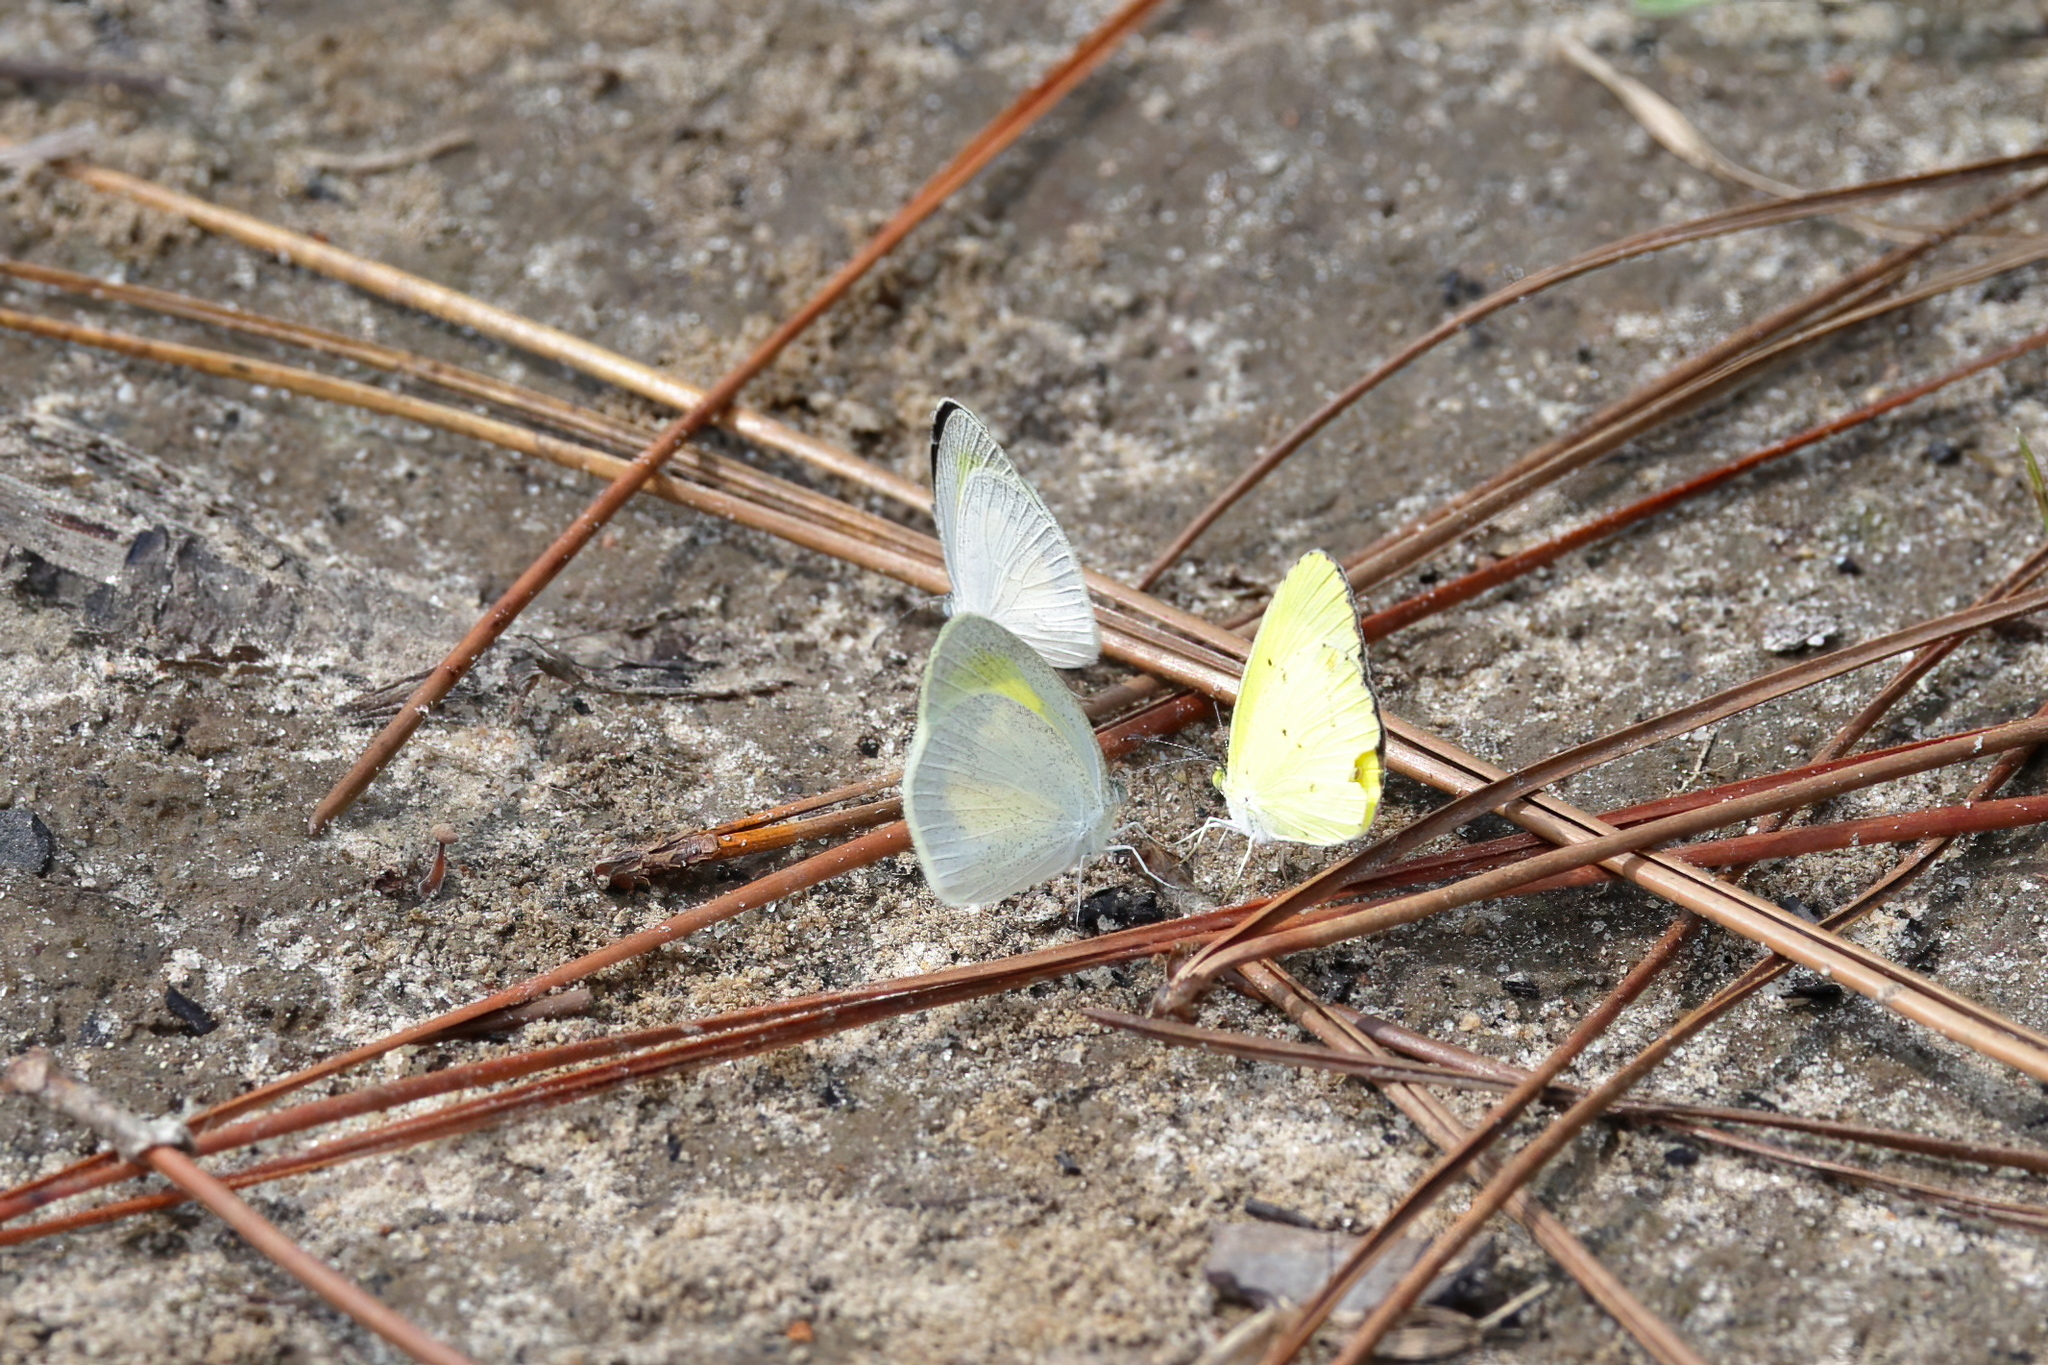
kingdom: Animalia
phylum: Arthropoda
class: Insecta
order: Lepidoptera
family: Pieridae
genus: Eurema
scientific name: Eurema daira
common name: Barred sulphur
